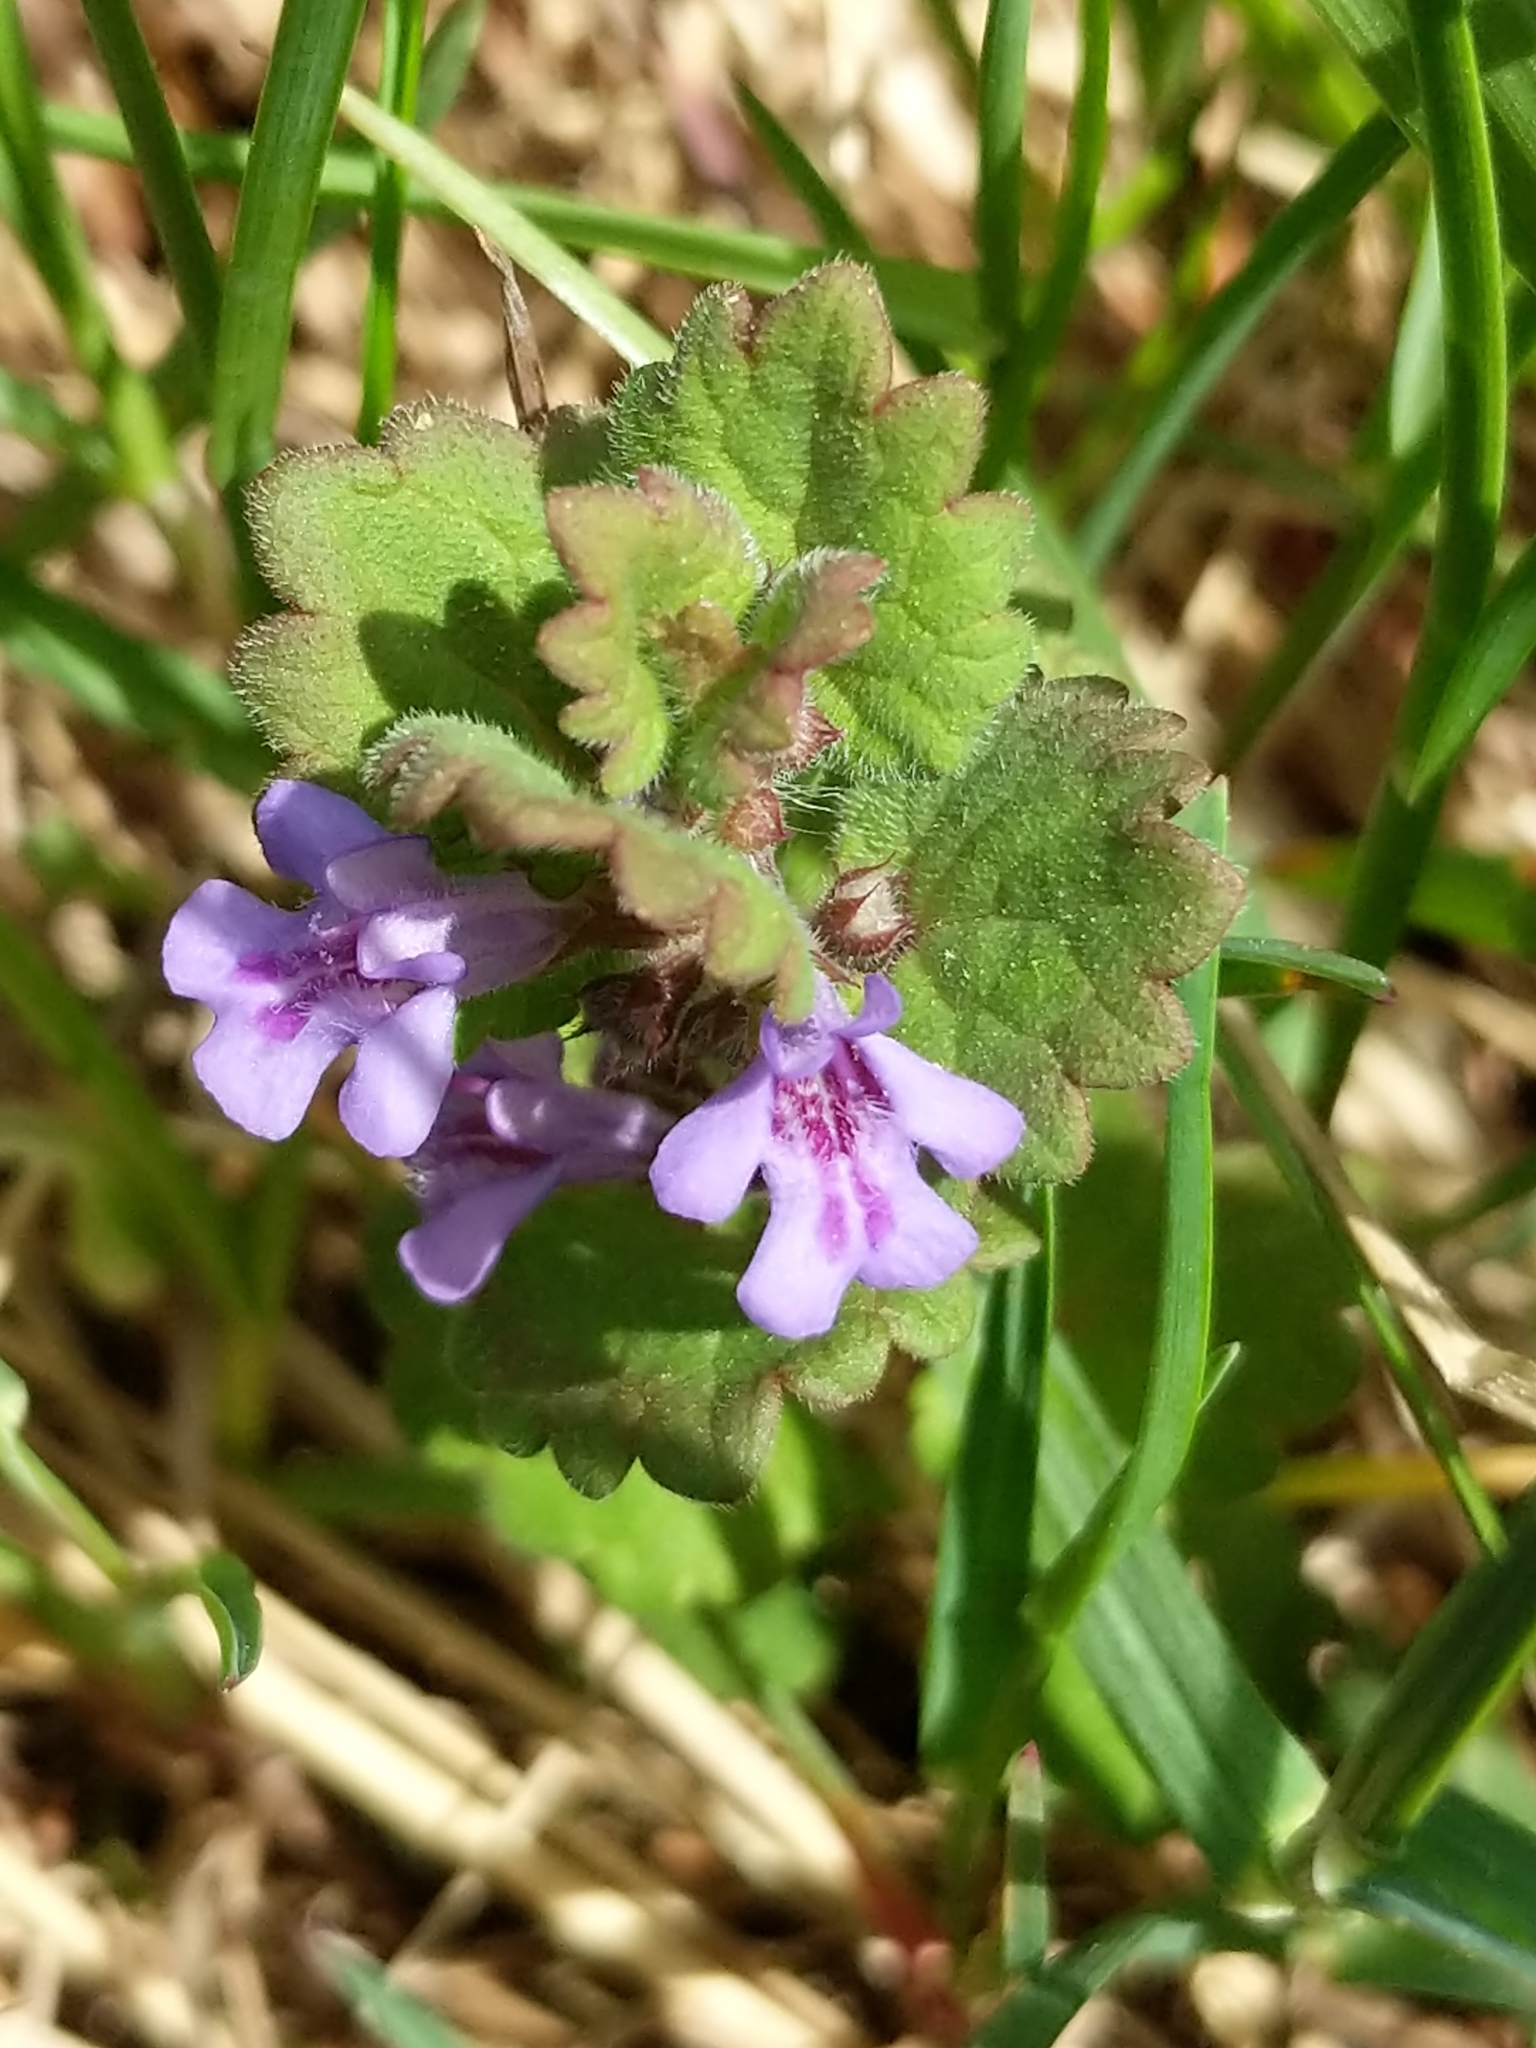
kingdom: Plantae
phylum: Tracheophyta
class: Magnoliopsida
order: Lamiales
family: Lamiaceae
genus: Glechoma
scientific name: Glechoma hederacea
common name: Ground ivy
